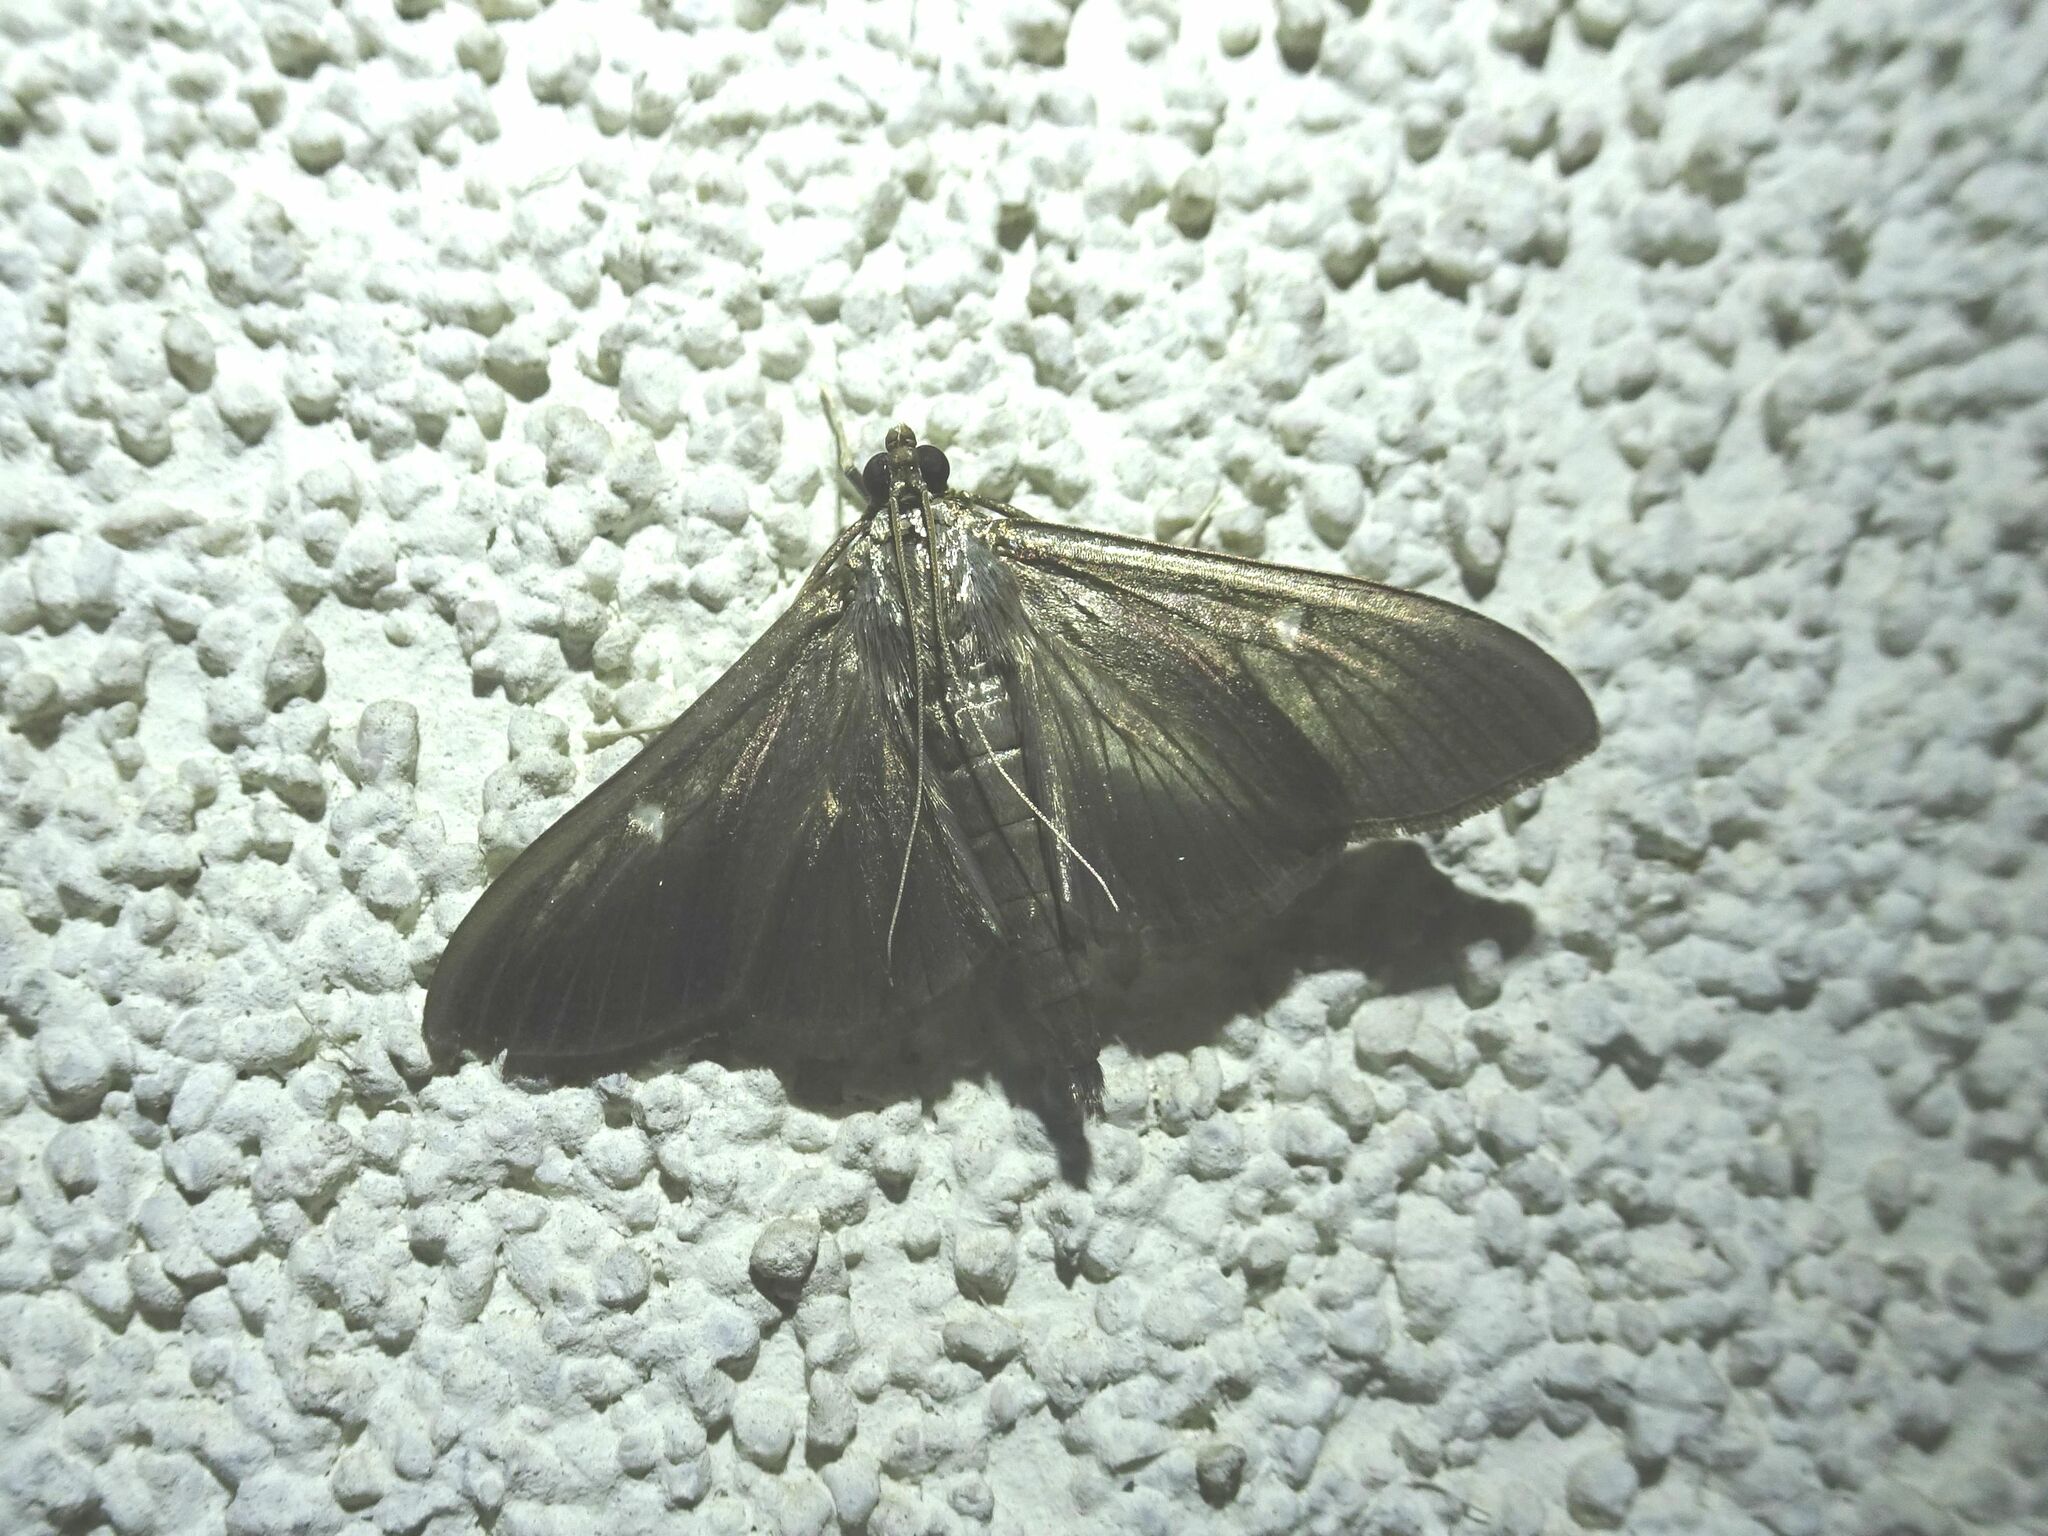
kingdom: Animalia
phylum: Arthropoda
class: Insecta
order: Lepidoptera
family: Crambidae
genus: Cydalima
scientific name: Cydalima perspectalis
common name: Box tree moth
